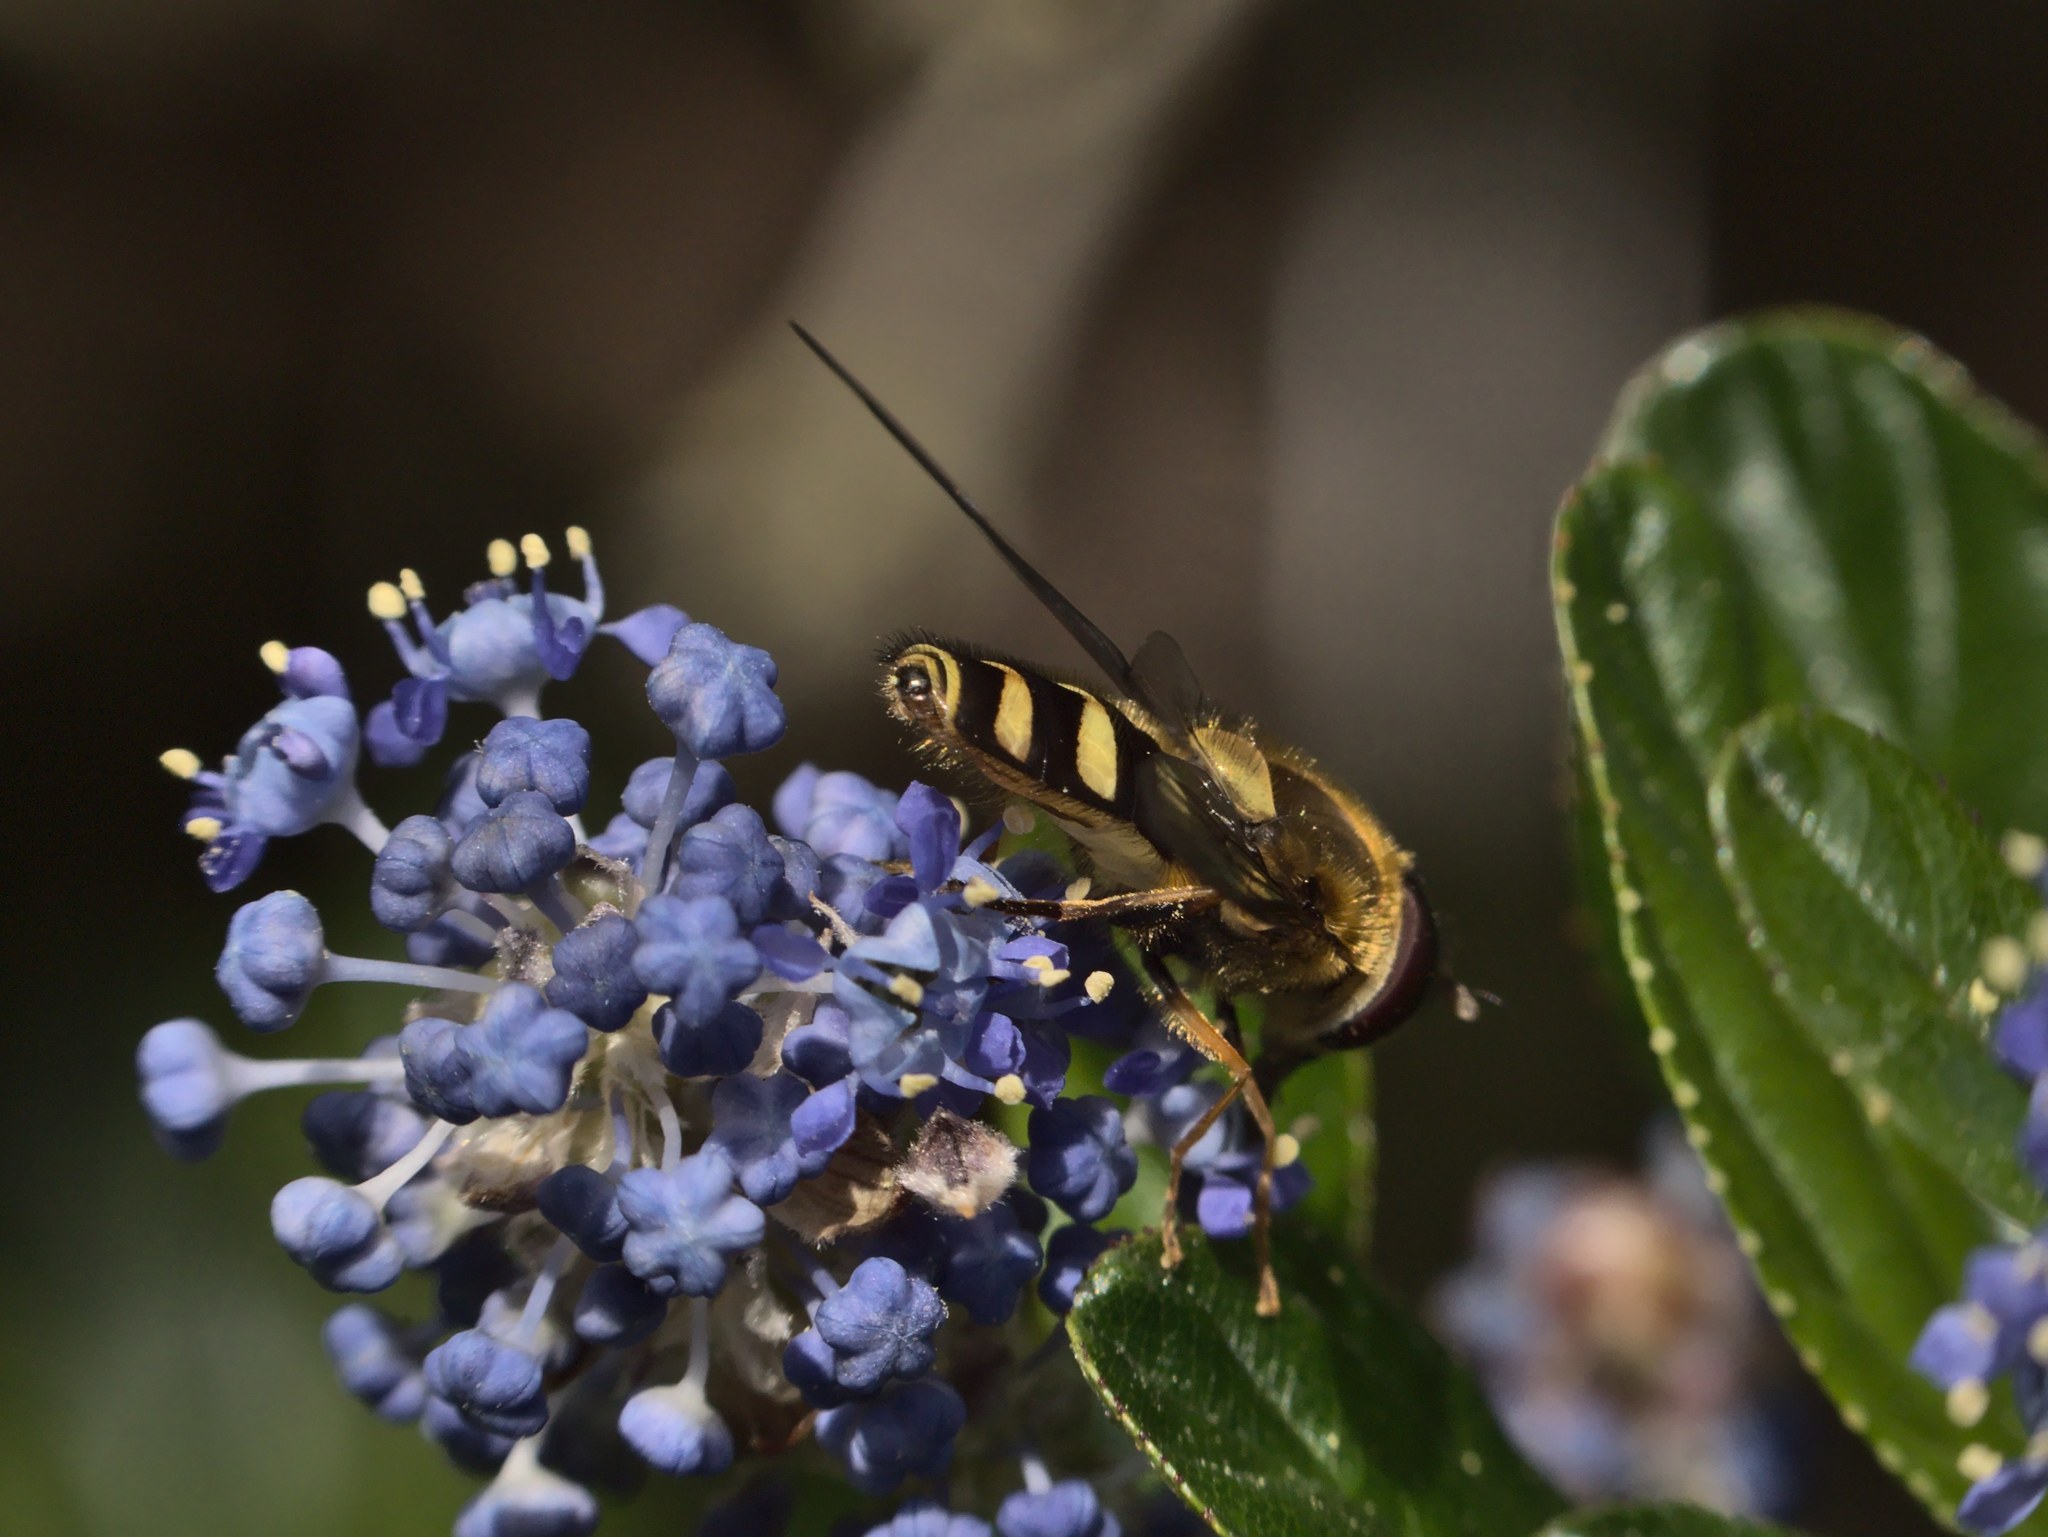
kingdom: Animalia
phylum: Arthropoda
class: Insecta
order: Diptera
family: Syrphidae
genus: Syrphus
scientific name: Syrphus opinator
